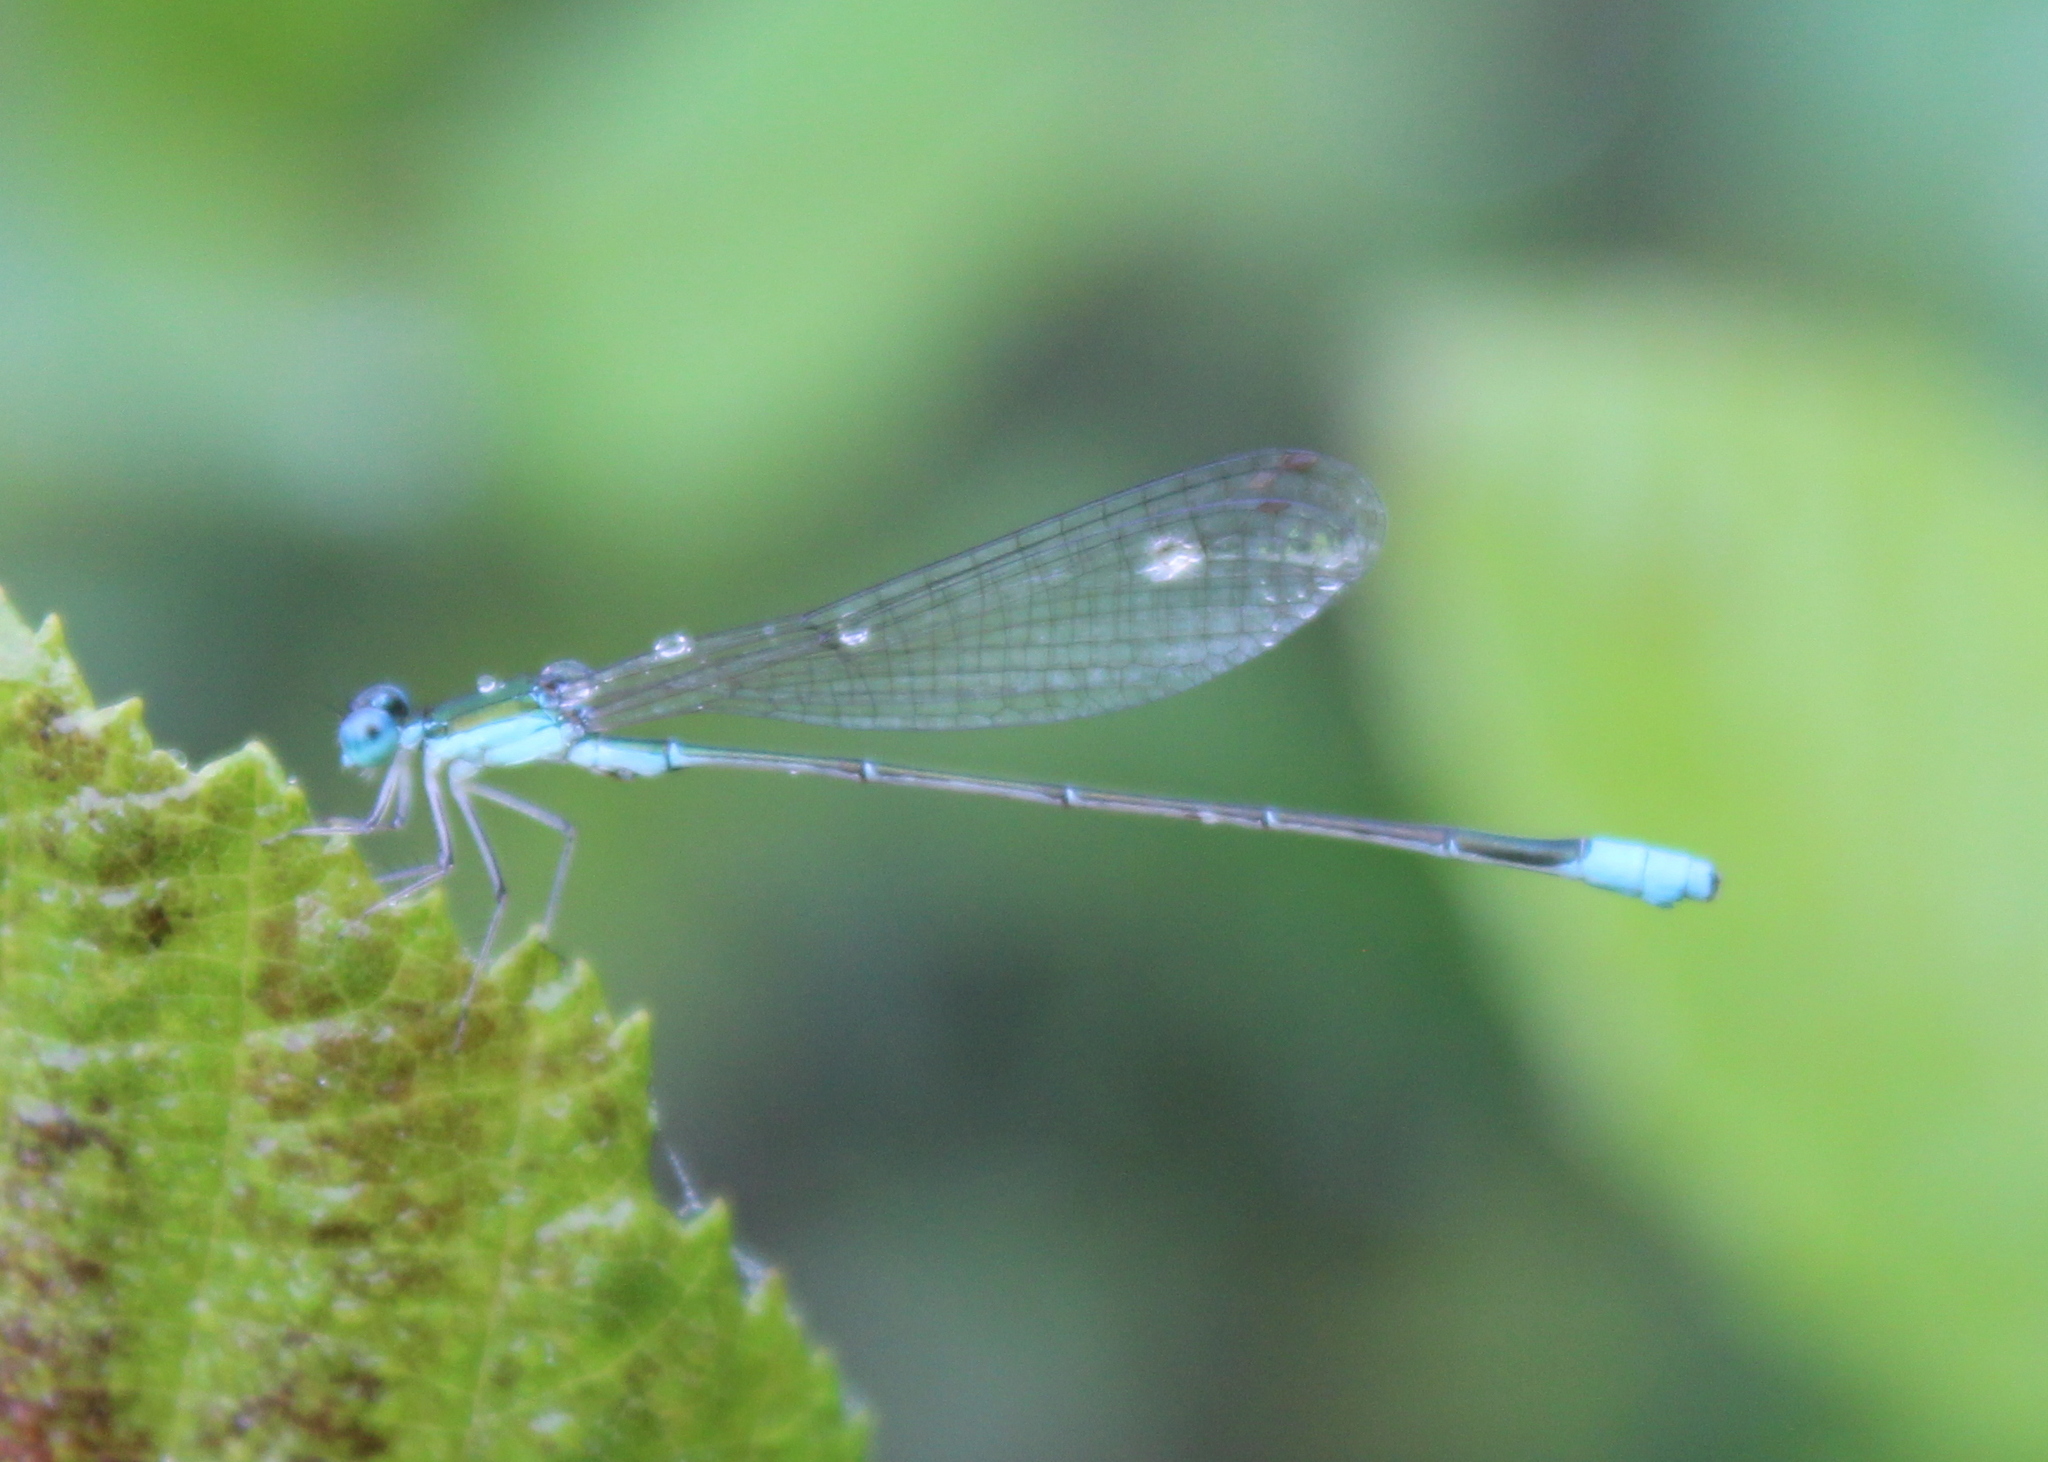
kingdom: Animalia
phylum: Arthropoda
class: Insecta
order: Odonata
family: Coenagrionidae
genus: Nehalennia
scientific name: Nehalennia gracilis
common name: Sphagnum sprite
